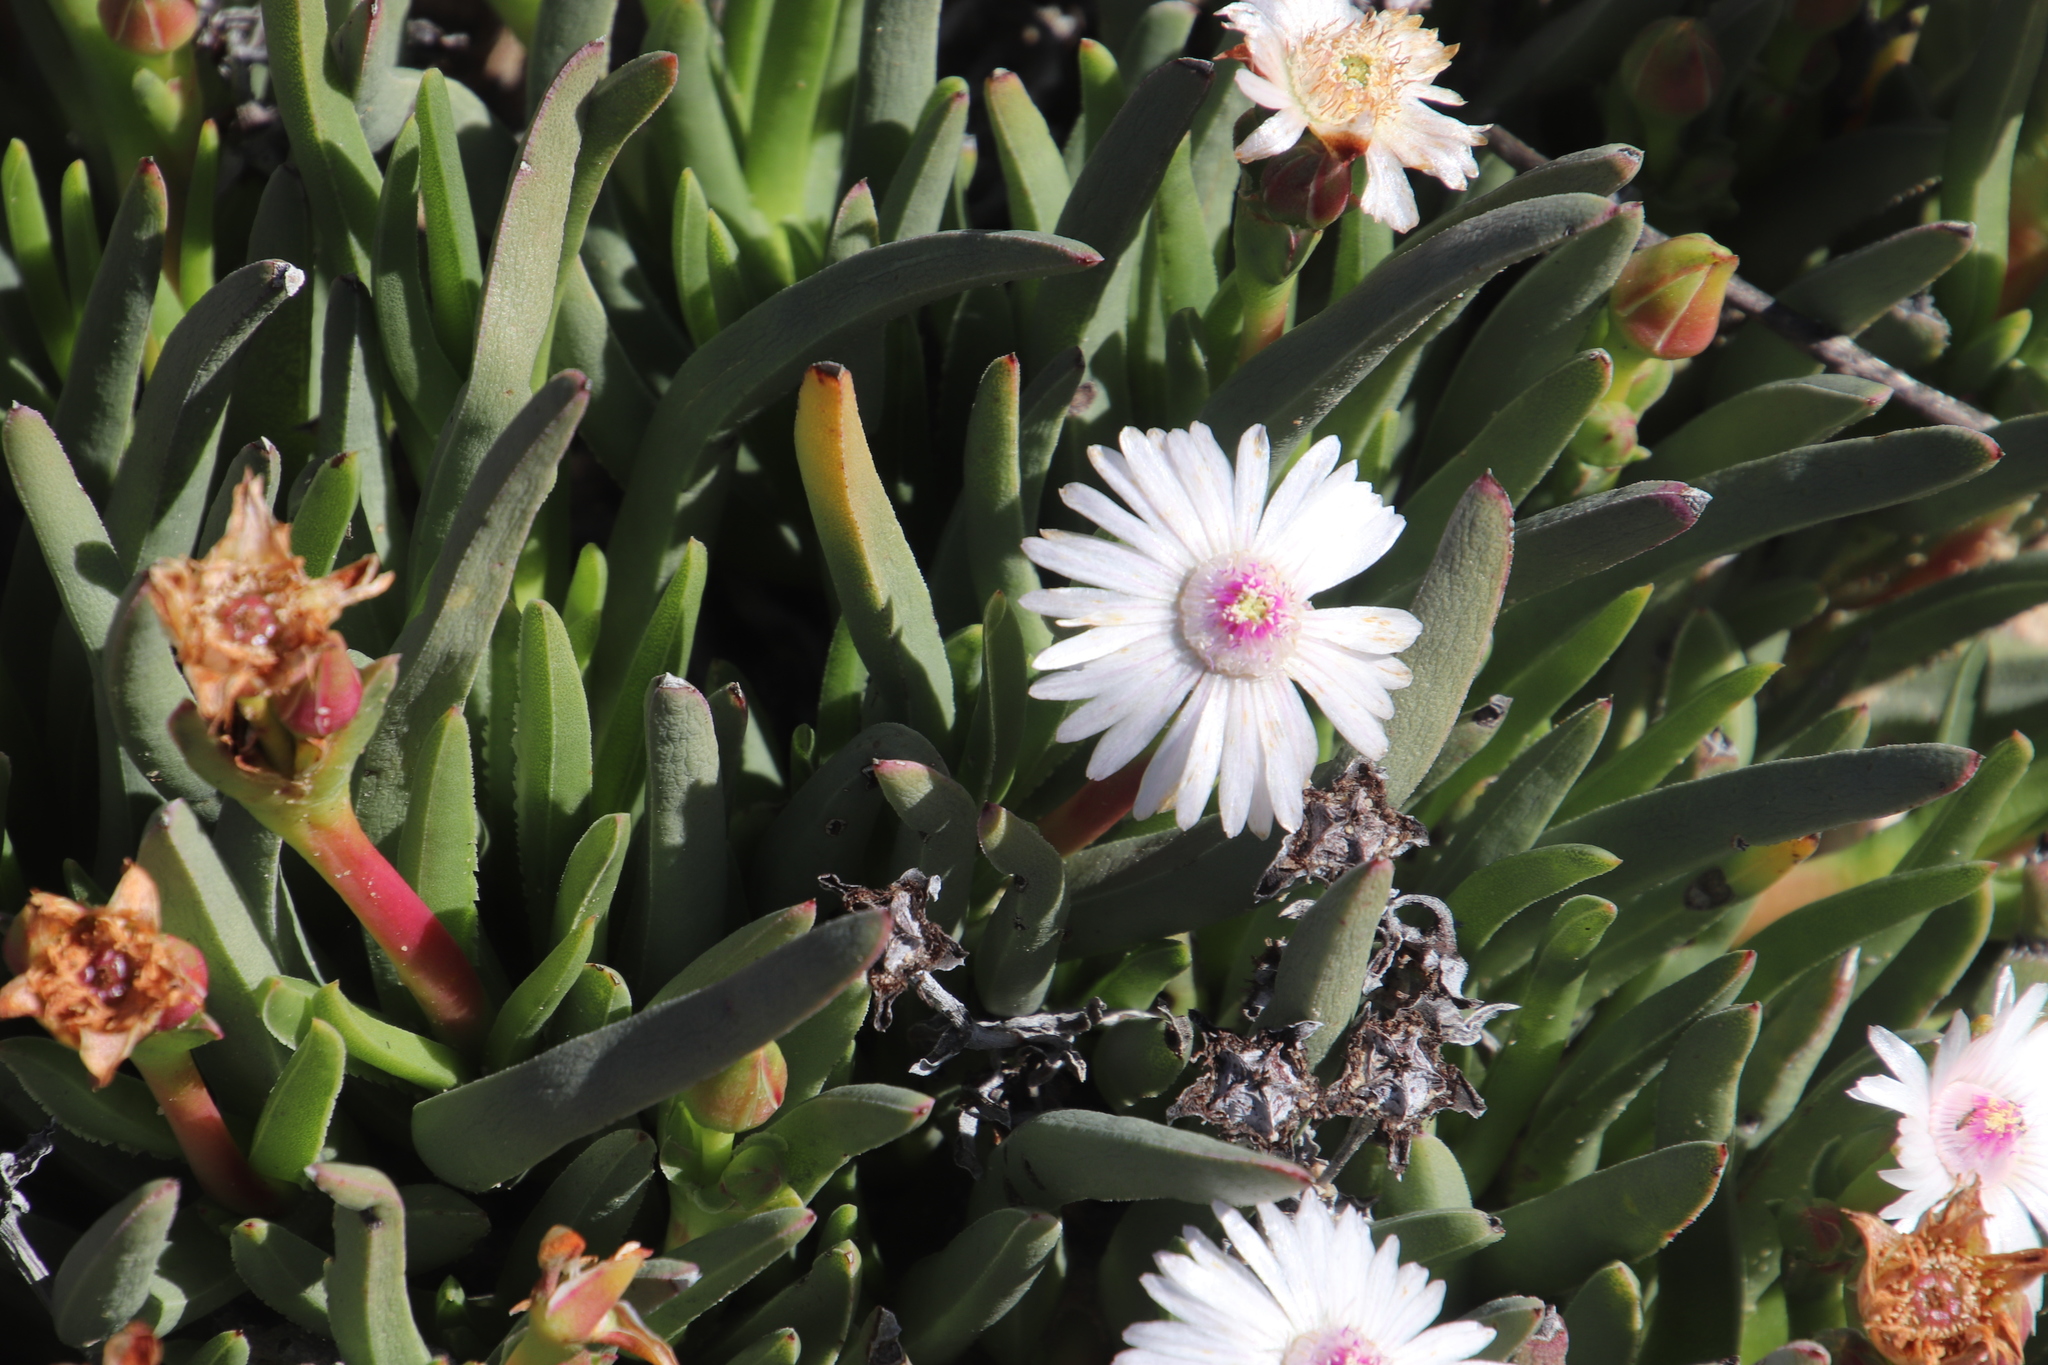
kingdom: Plantae
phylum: Tracheophyta
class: Magnoliopsida
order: Caryophyllales
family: Aizoaceae
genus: Ruschia
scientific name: Ruschia albida
